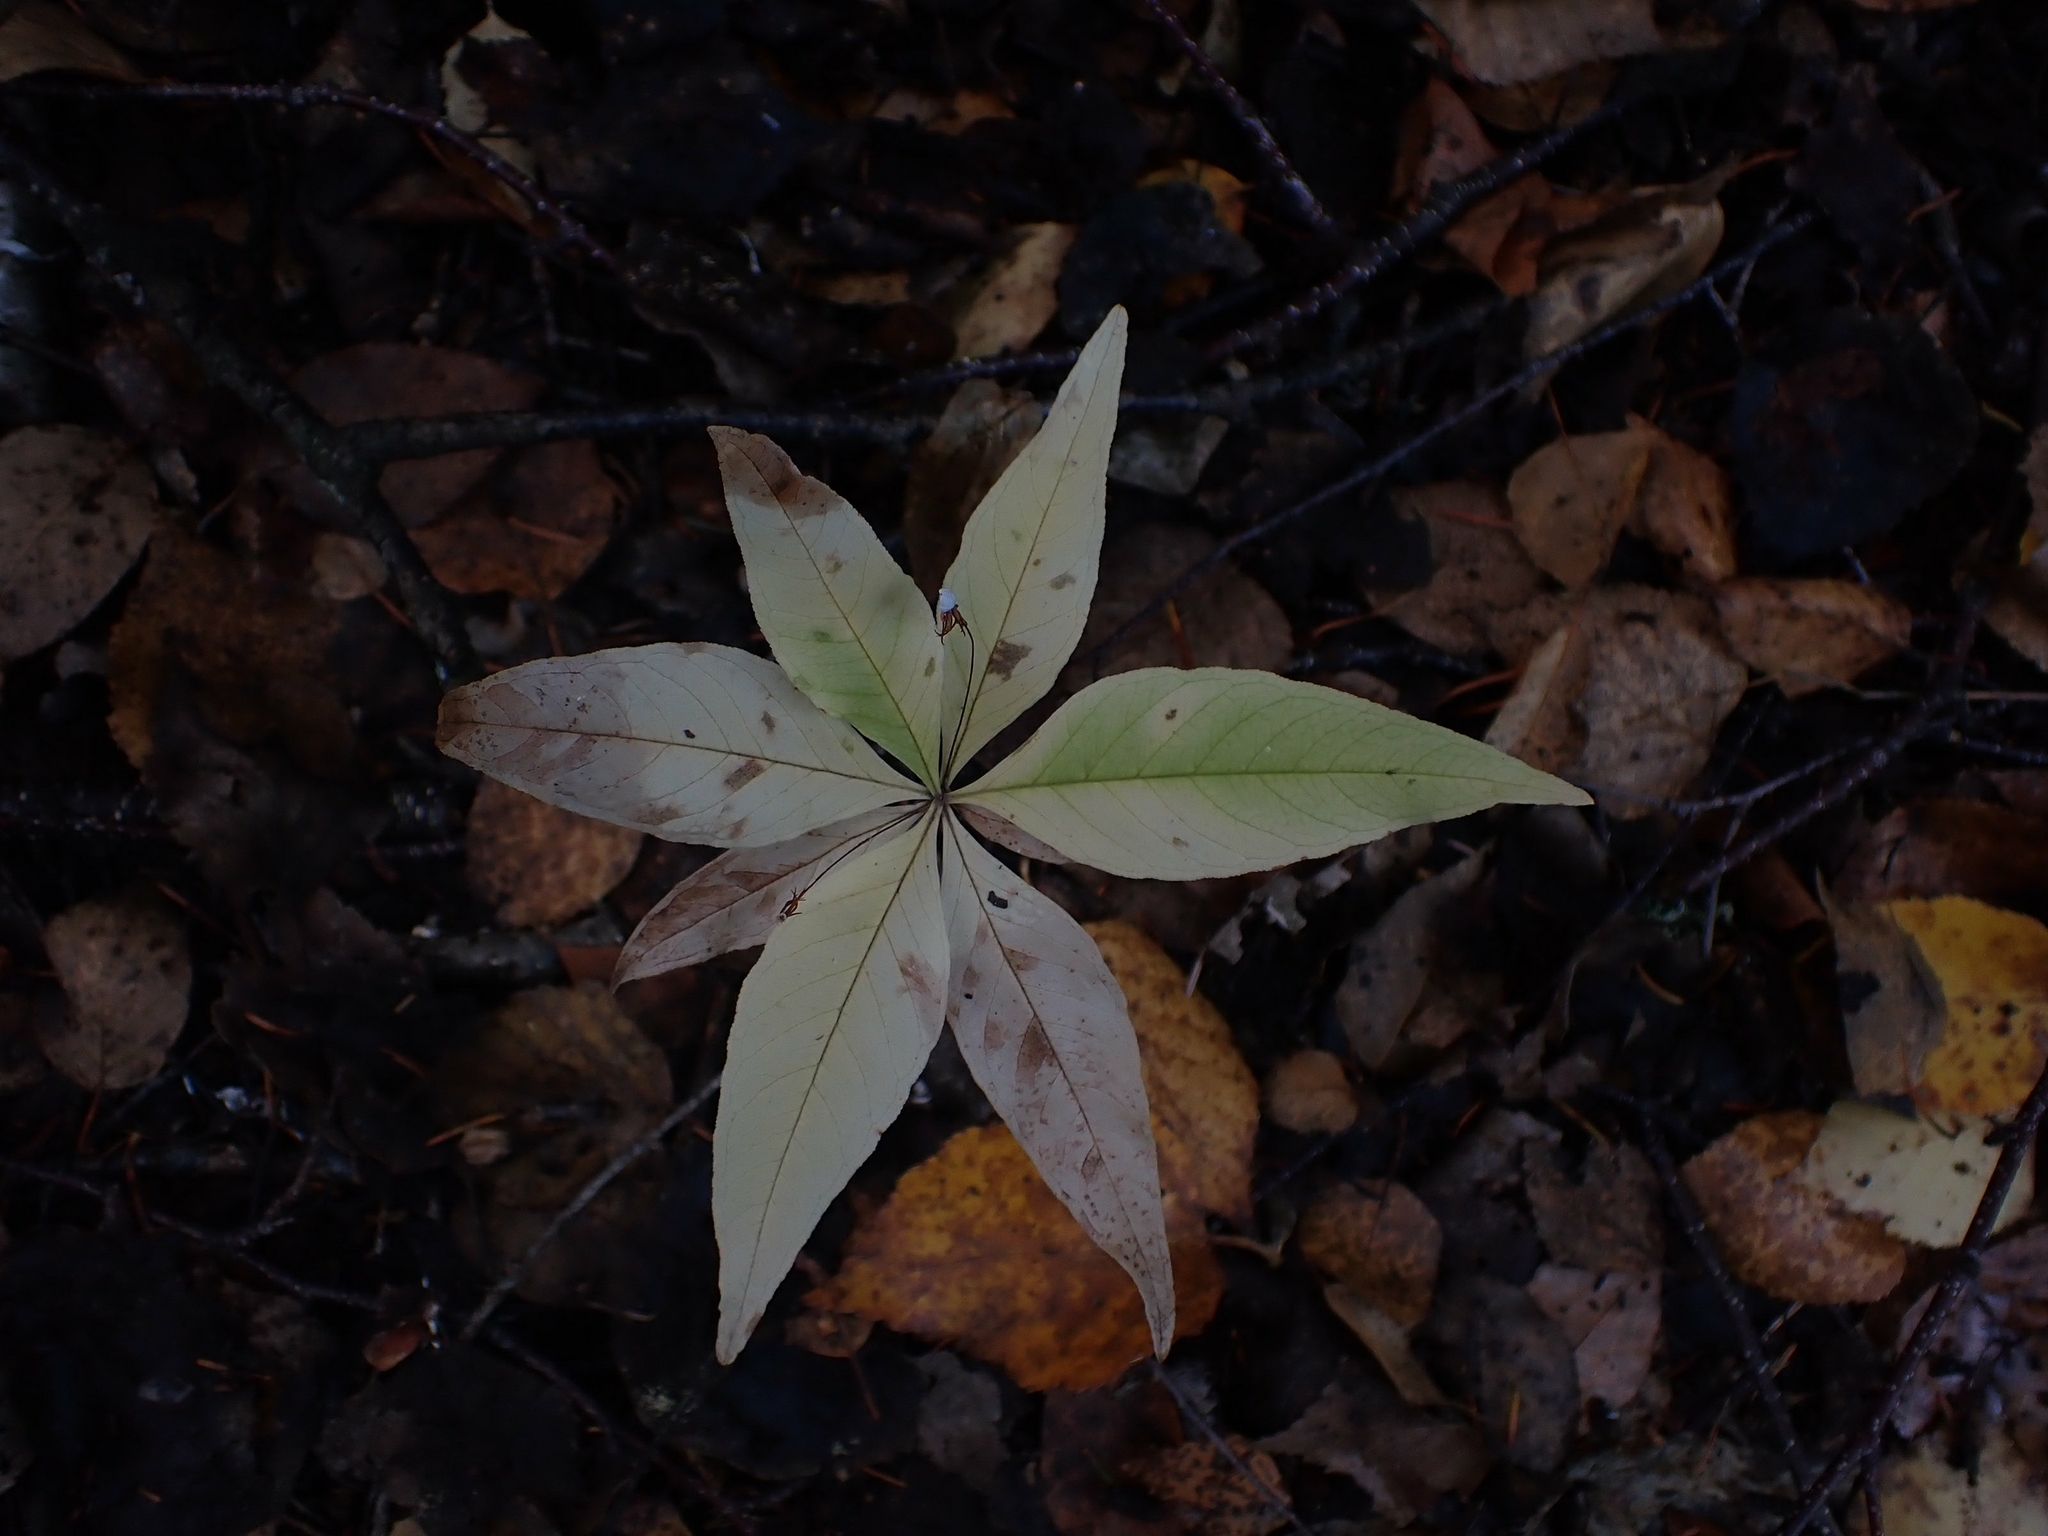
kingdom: Plantae
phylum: Tracheophyta
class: Magnoliopsida
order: Ericales
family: Primulaceae
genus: Lysimachia
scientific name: Lysimachia borealis
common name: American starflower
